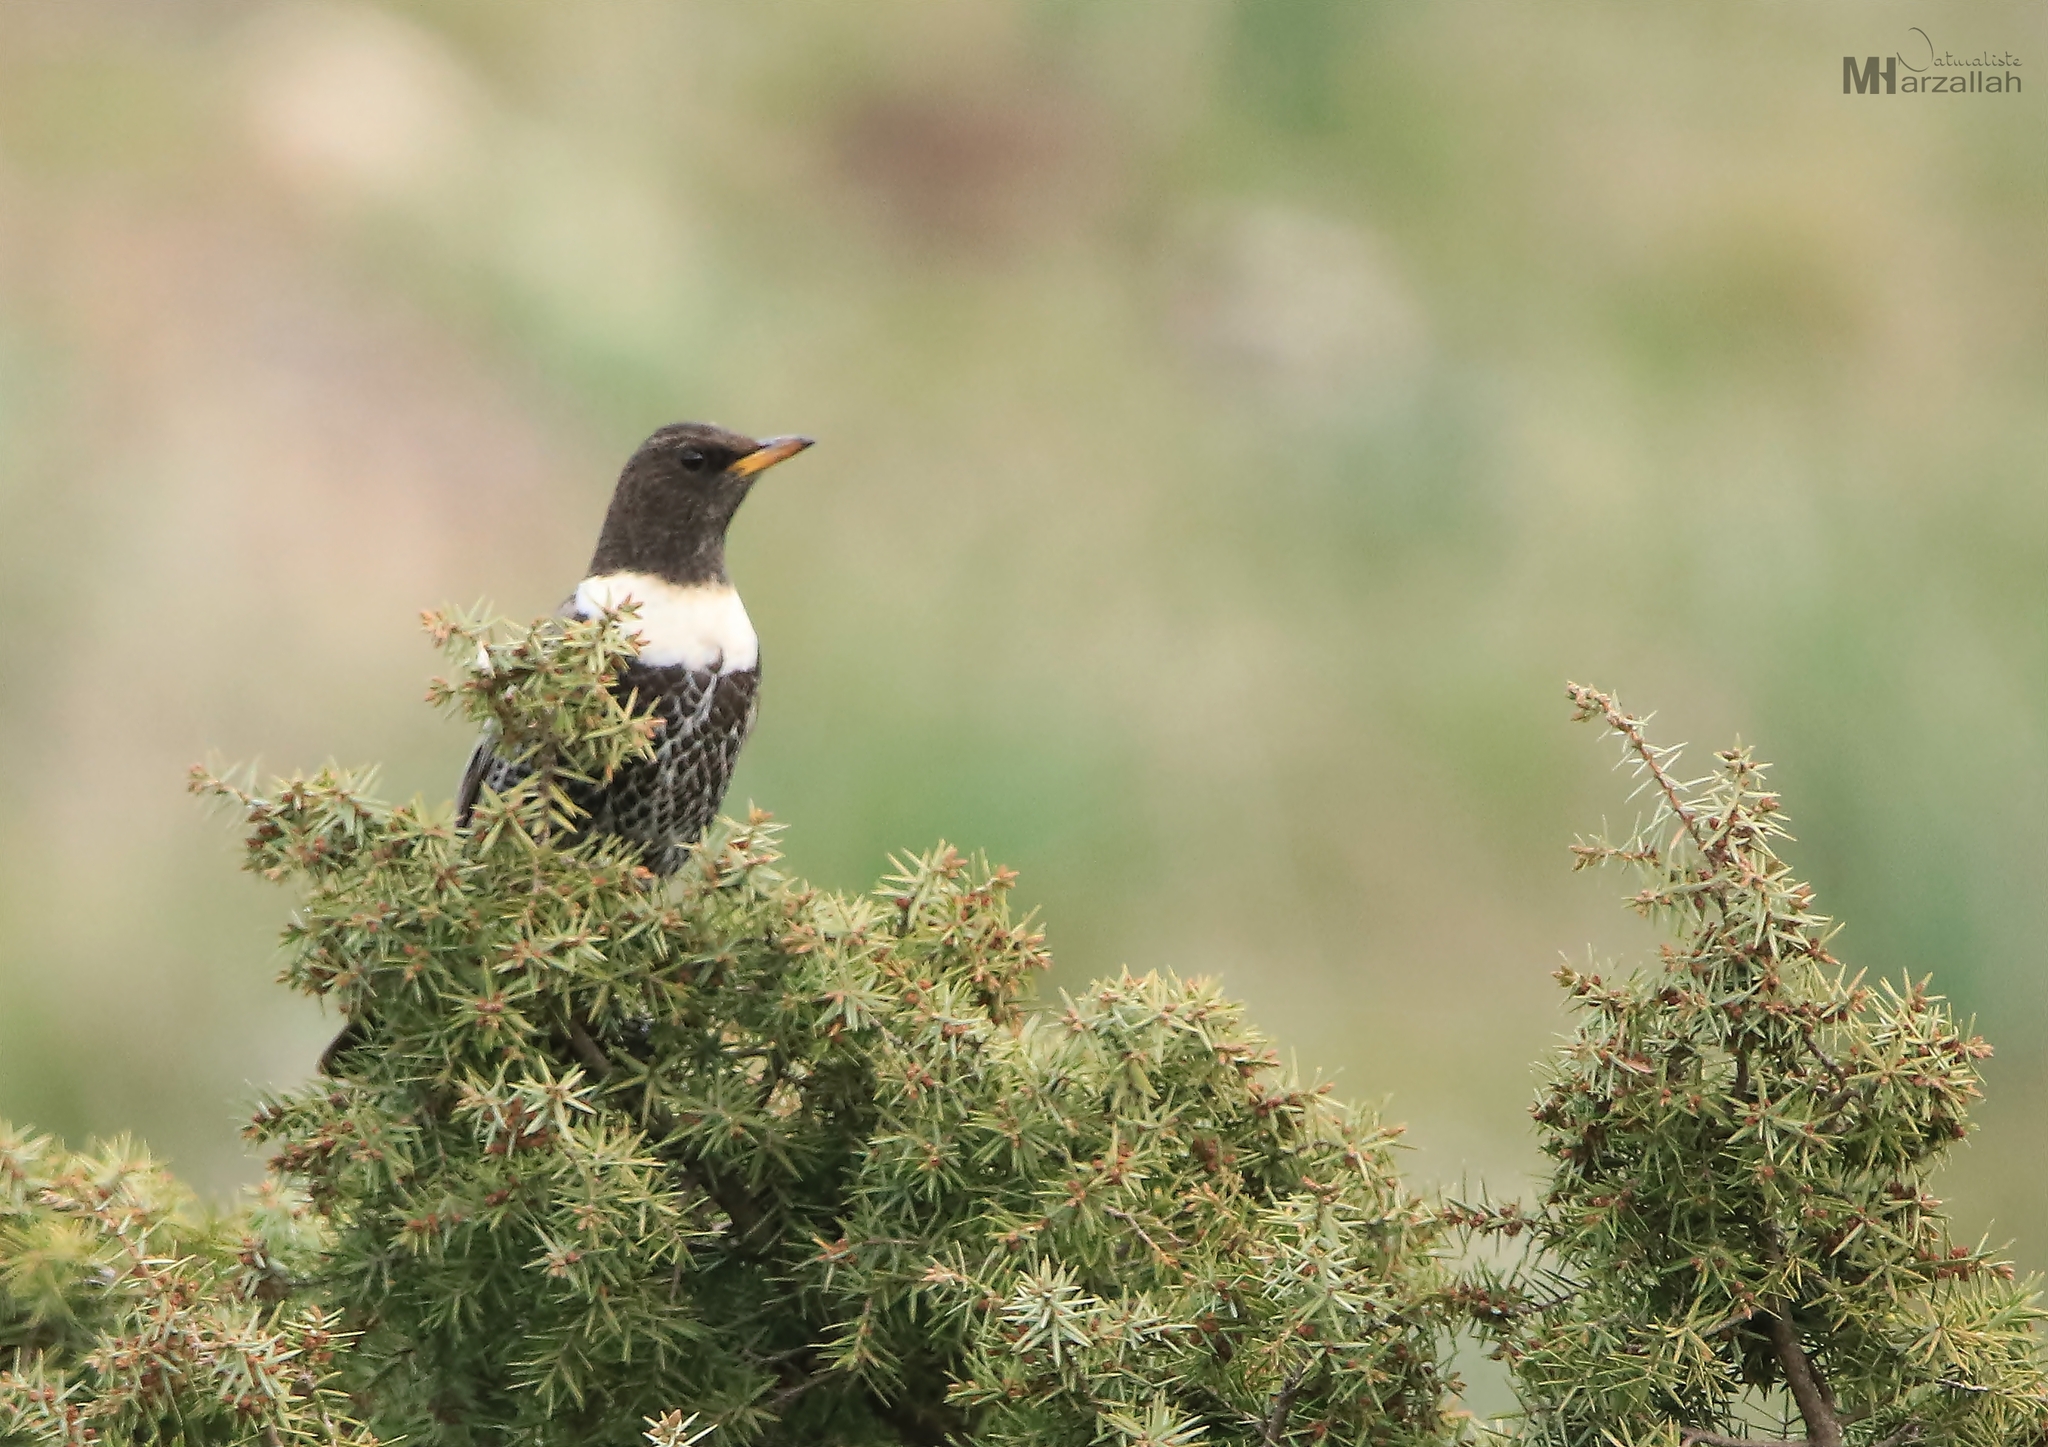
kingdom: Animalia
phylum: Chordata
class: Aves
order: Passeriformes
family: Turdidae
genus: Turdus
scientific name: Turdus torquatus
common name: Ring ouzel
